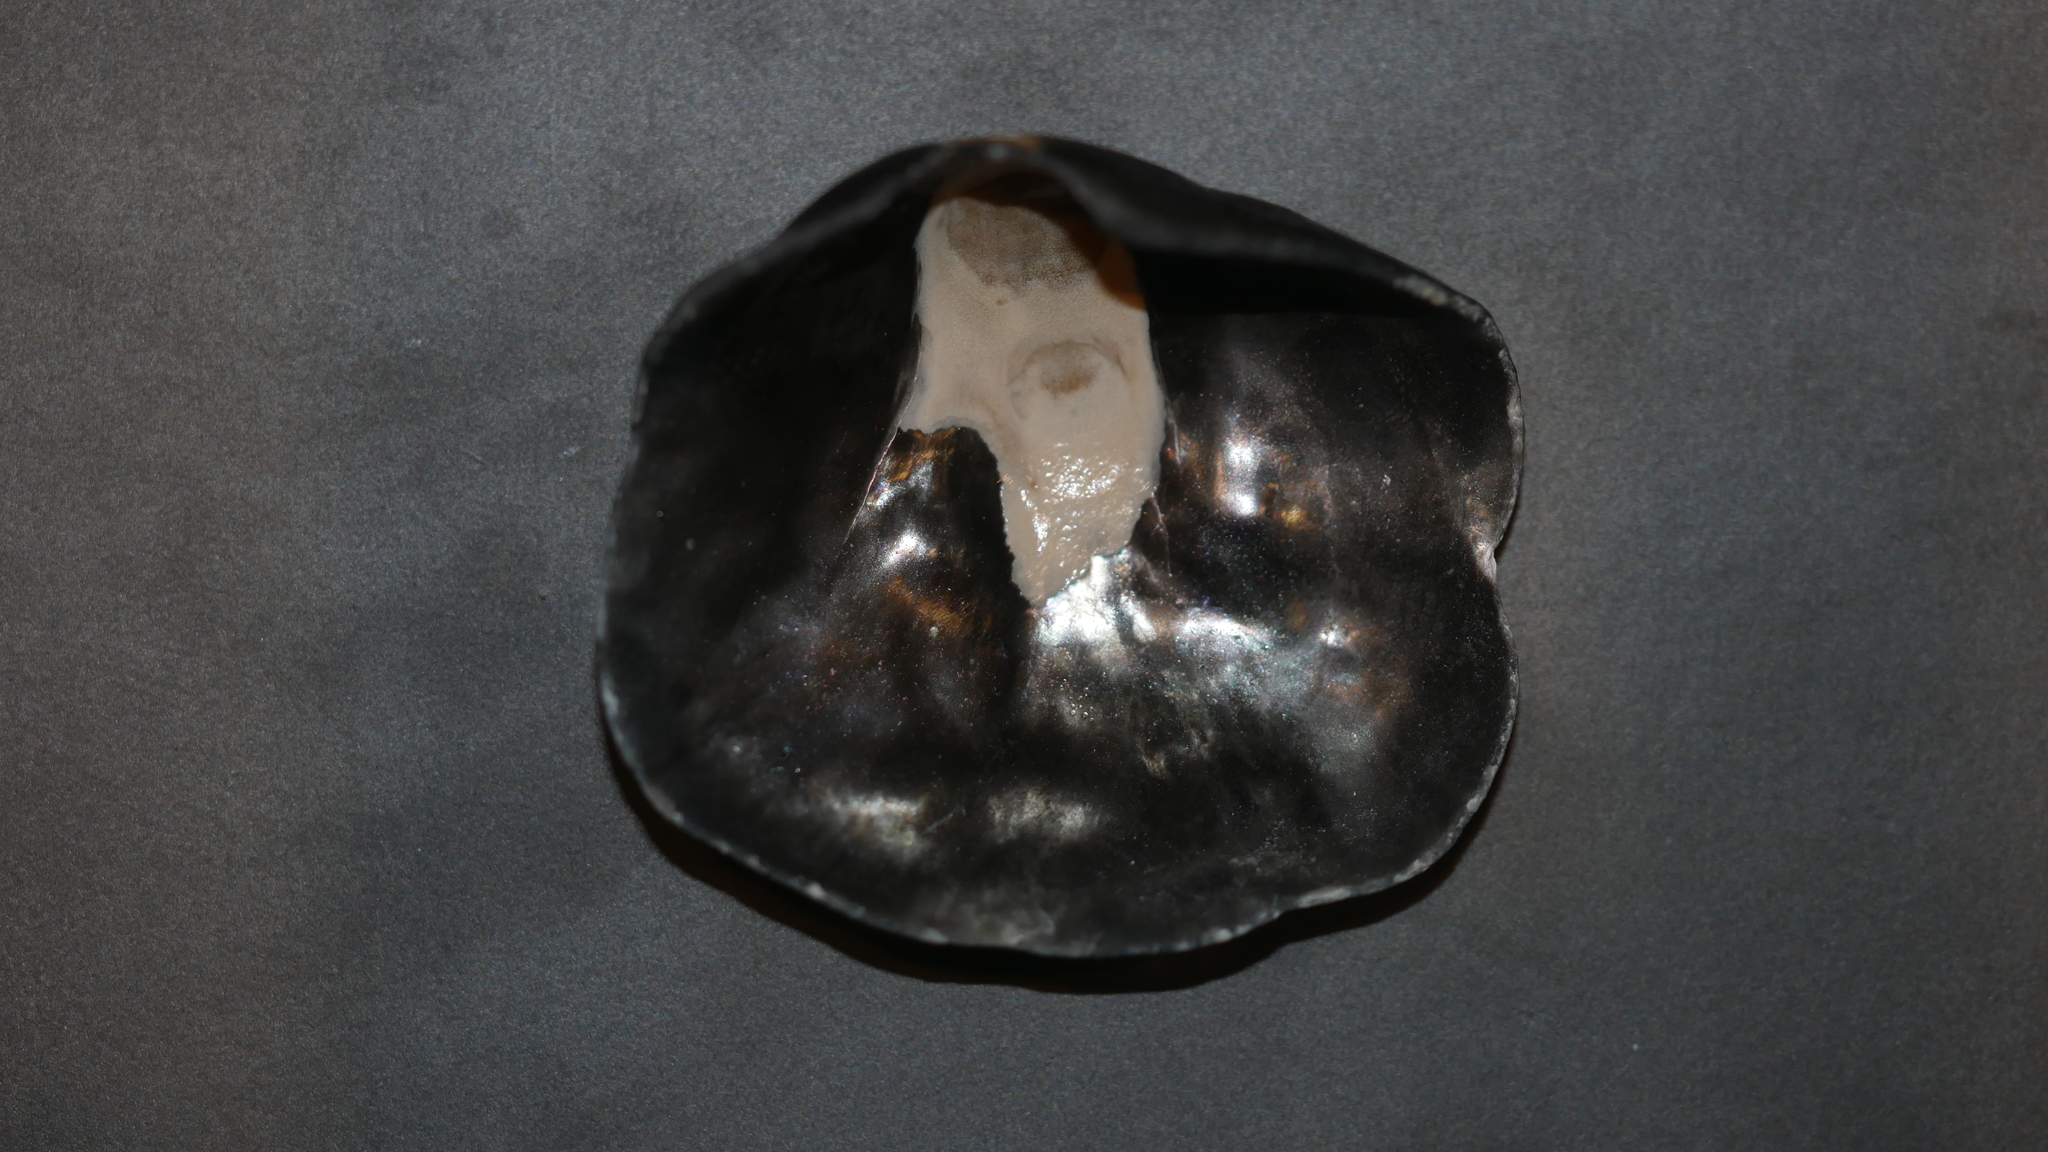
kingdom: Animalia
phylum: Mollusca
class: Bivalvia
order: Pectinida
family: Anomiidae
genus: Anomia
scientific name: Anomia simplex
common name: Common jingle shell
